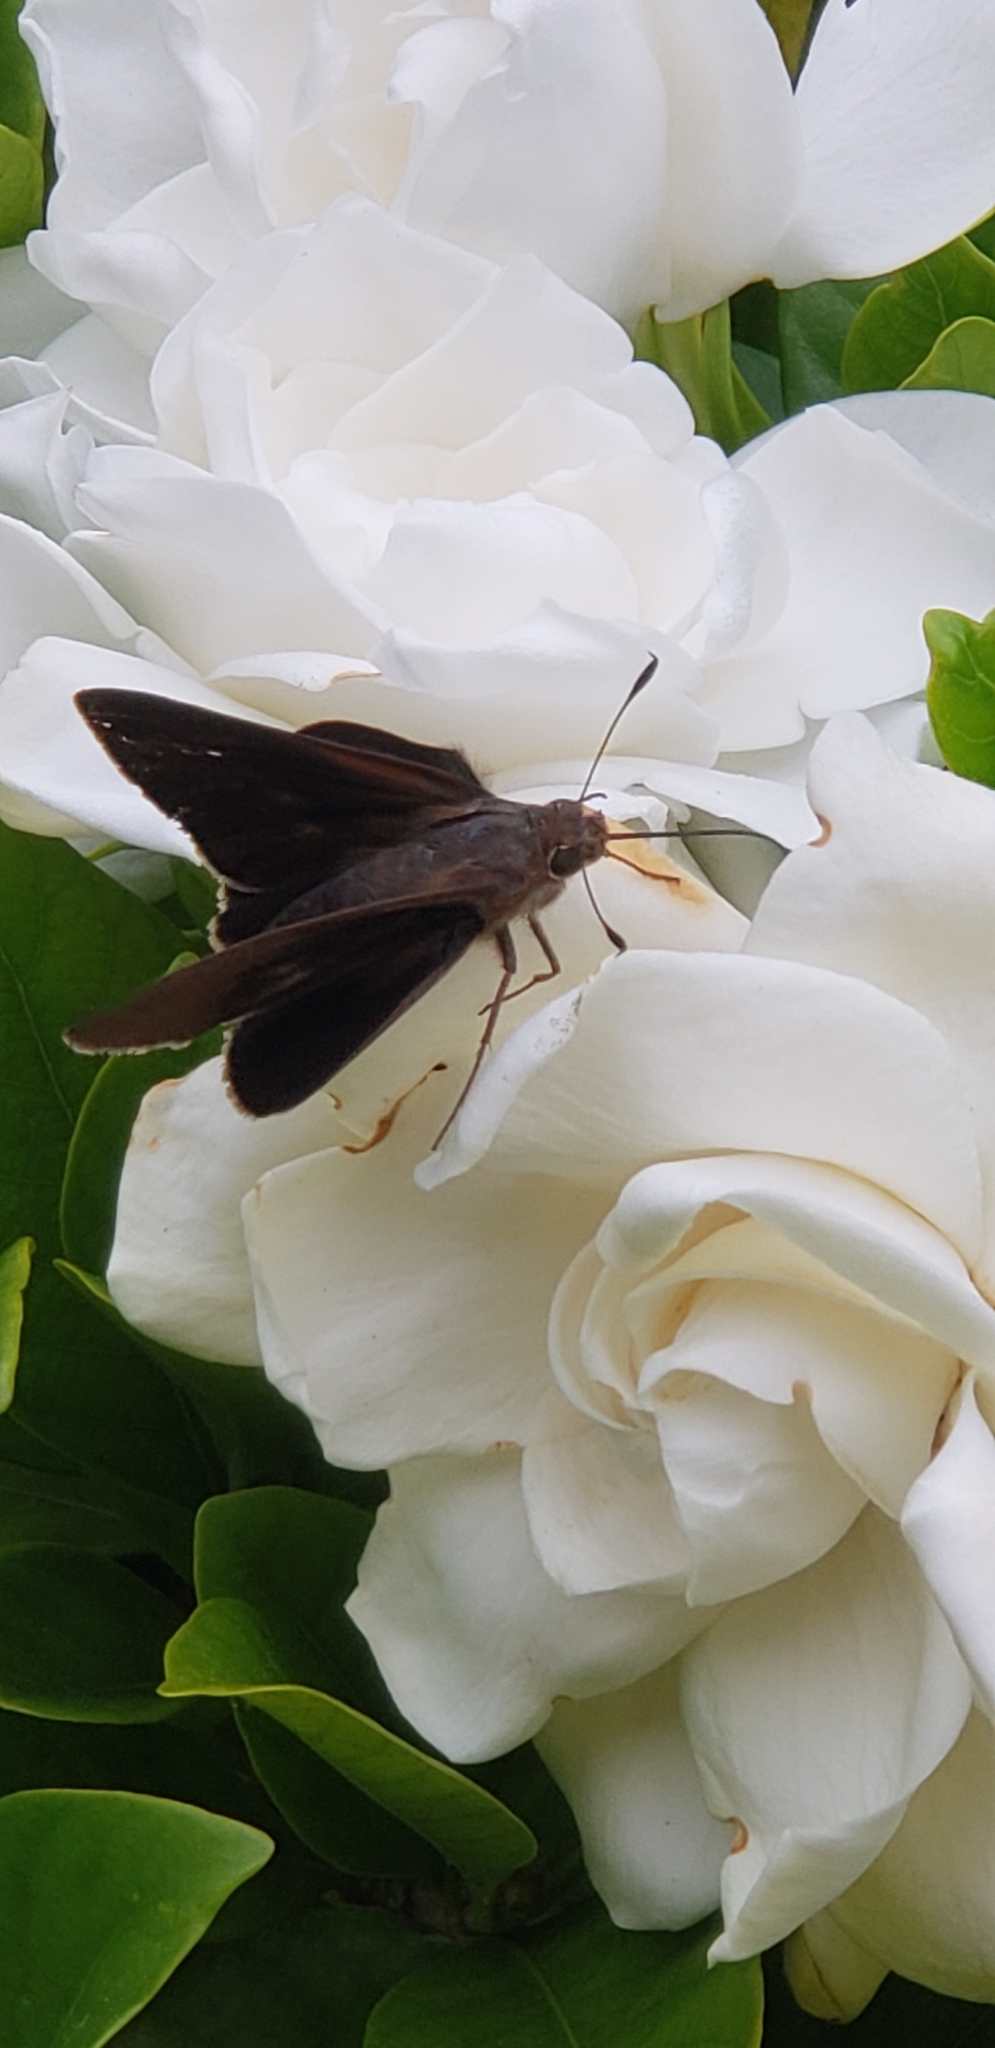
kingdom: Animalia
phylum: Arthropoda
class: Insecta
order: Lepidoptera
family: Hesperiidae
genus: Asbolis
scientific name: Asbolis capucinus
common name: Monk skipper
